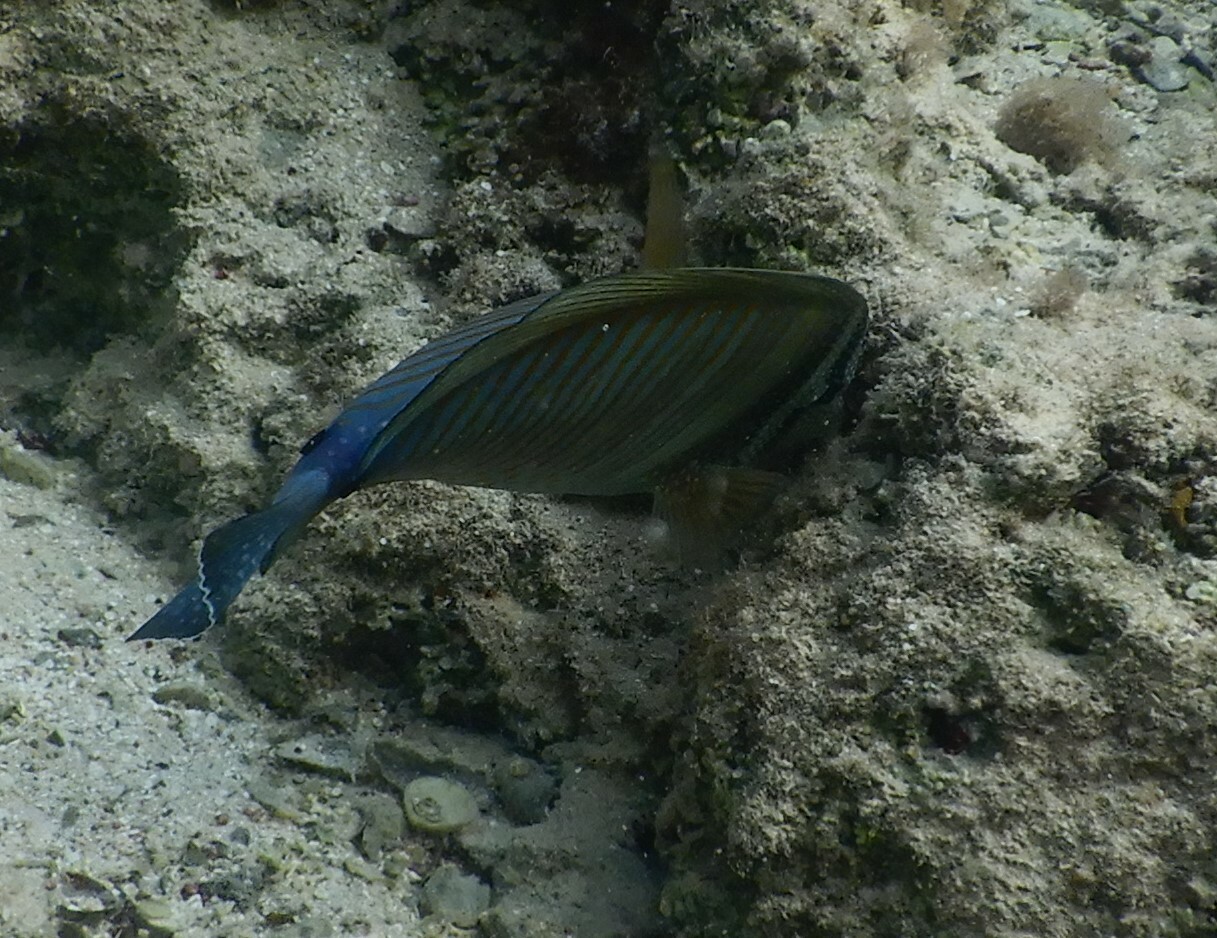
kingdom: Animalia
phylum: Chordata
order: Perciformes
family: Acanthuridae
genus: Zebrasoma
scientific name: Zebrasoma desjardinii
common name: Desjardin's sailfin tang
